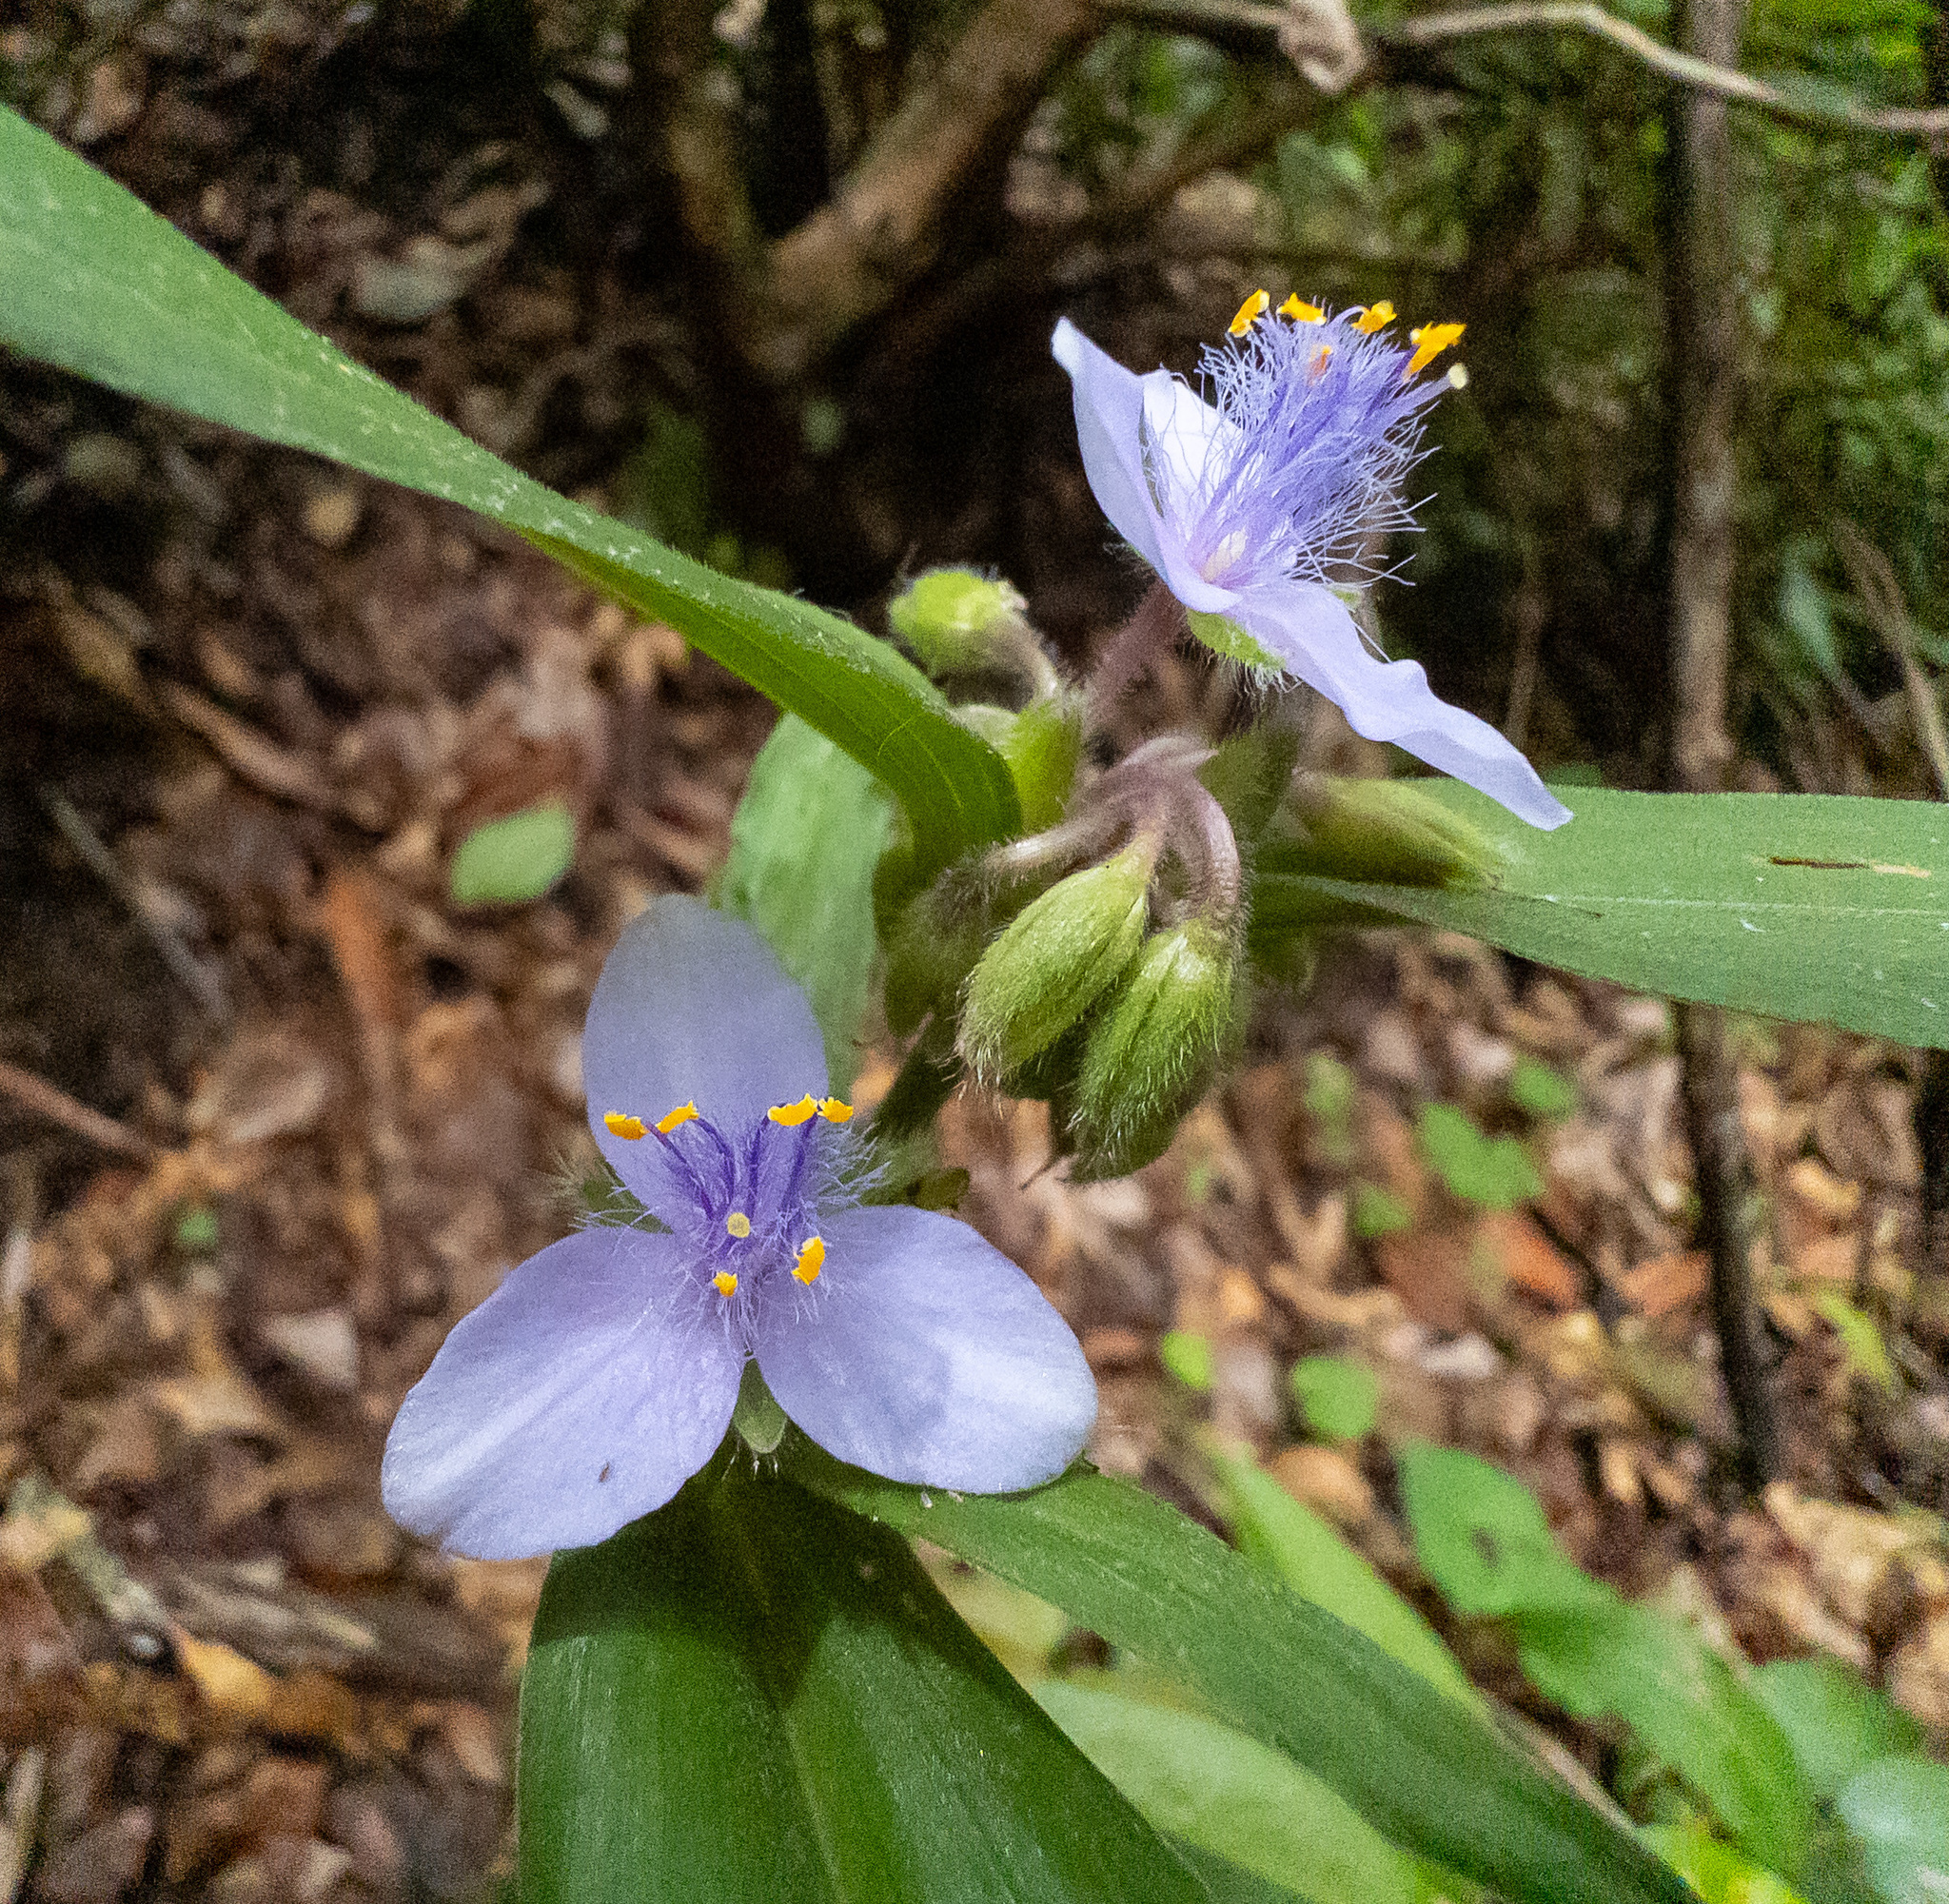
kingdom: Plantae
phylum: Tracheophyta
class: Liliopsida
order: Commelinales
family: Commelinaceae
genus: Tradescantia
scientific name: Tradescantia subaspera
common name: Wide-leaf spiderwort
